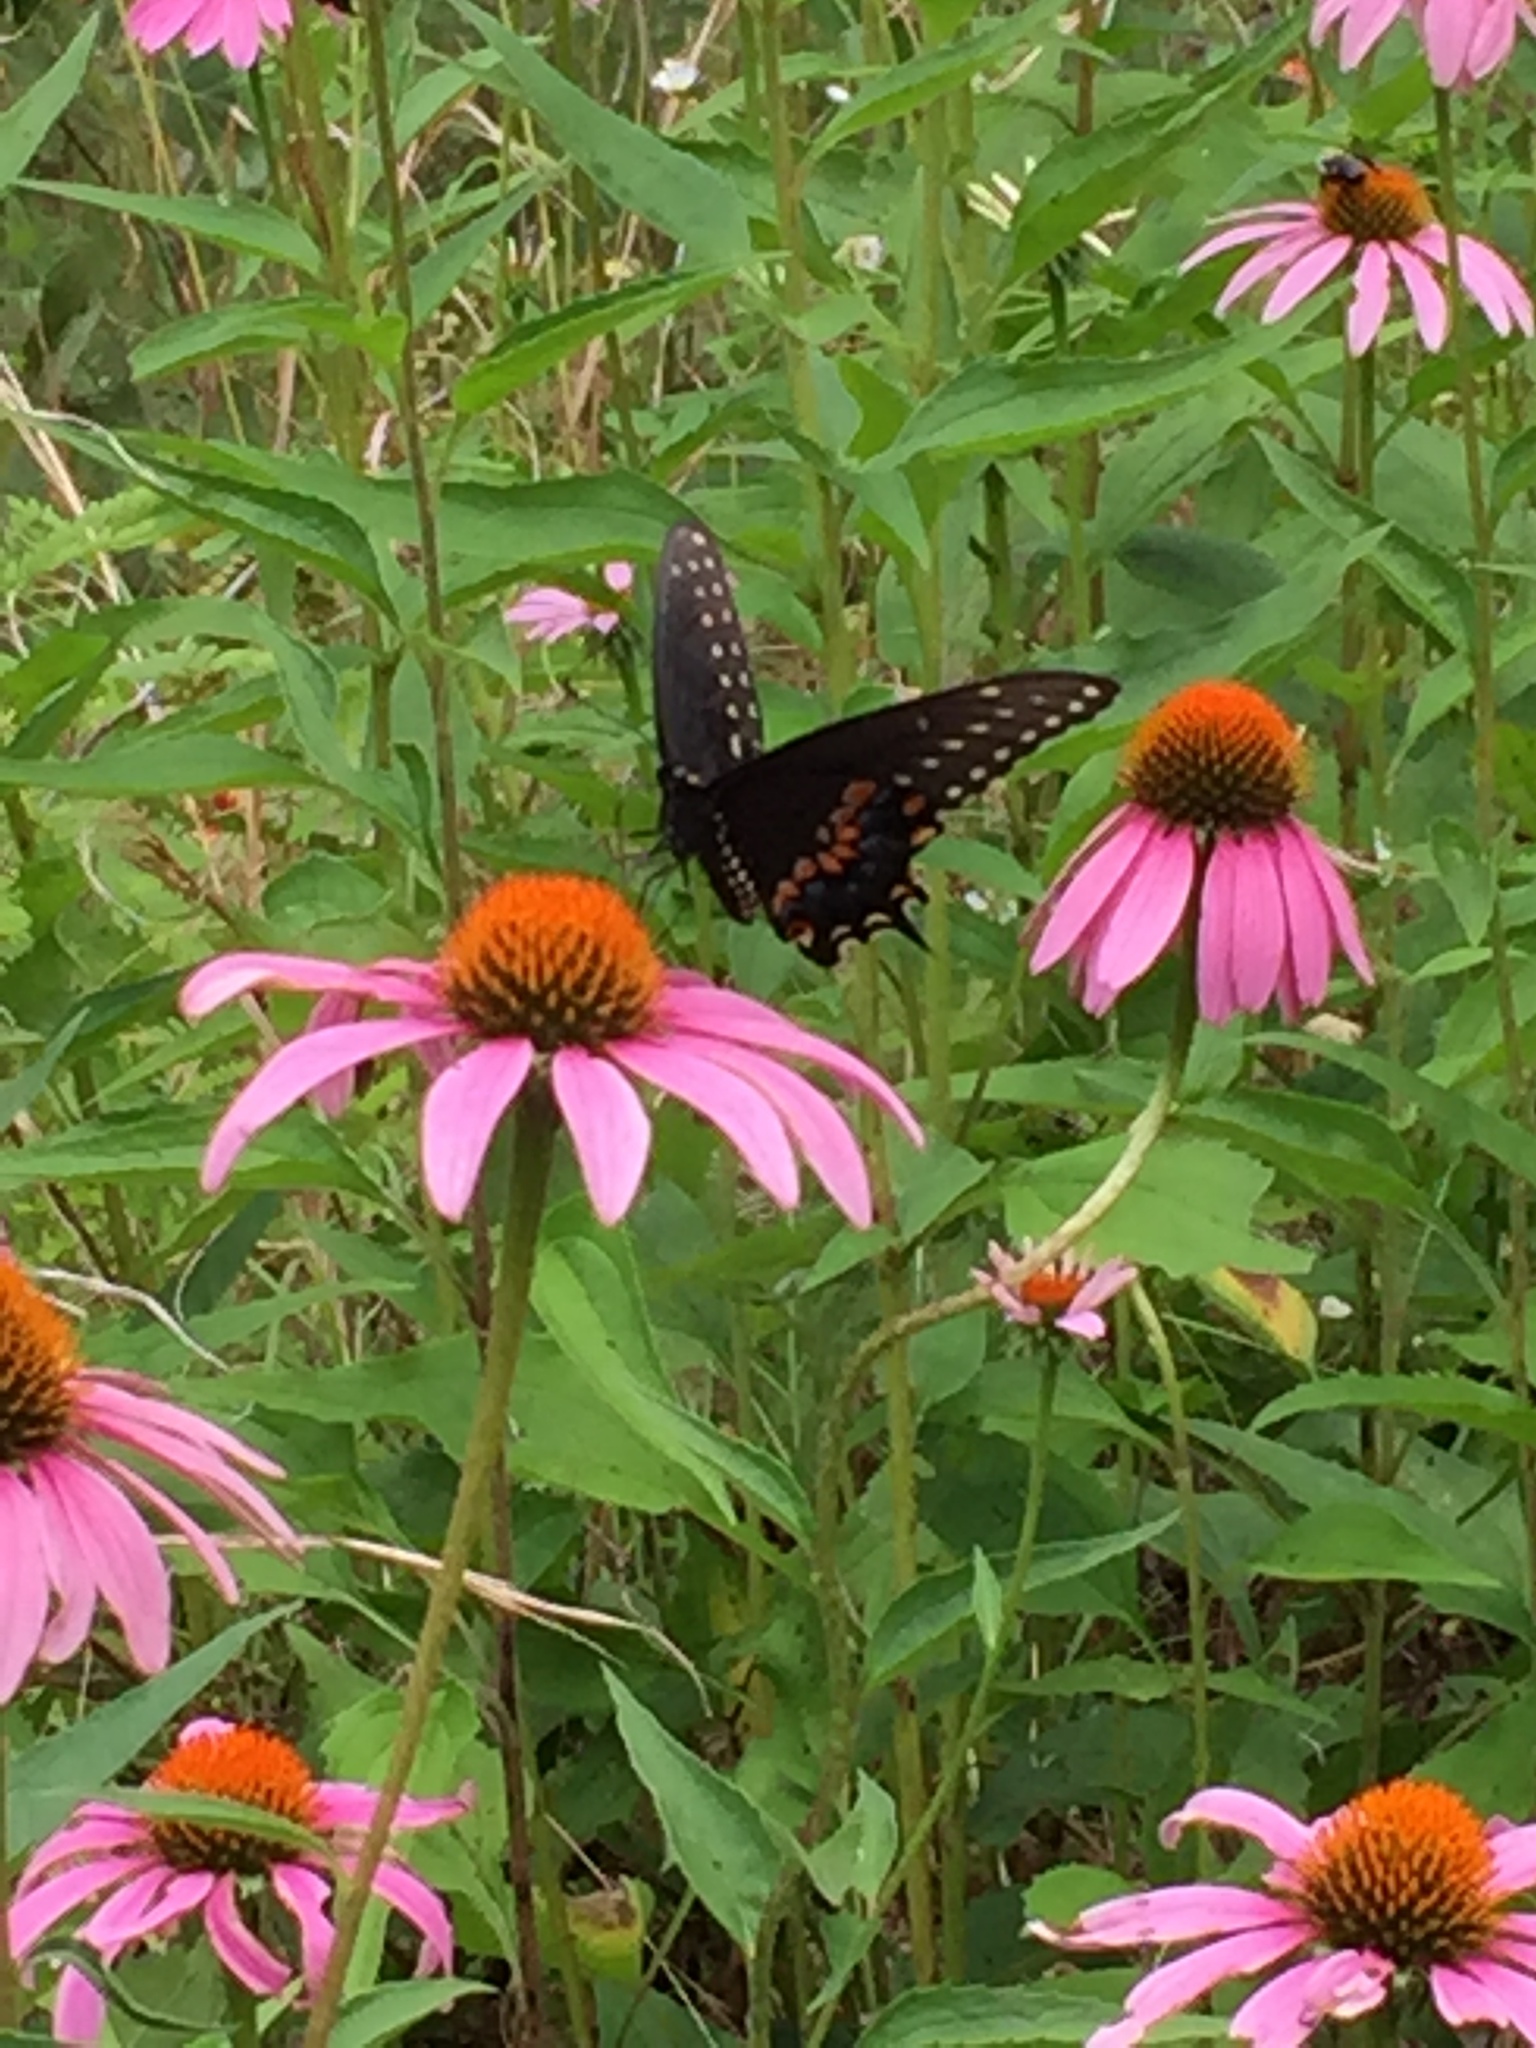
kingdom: Animalia
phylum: Arthropoda
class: Insecta
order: Lepidoptera
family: Papilionidae
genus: Papilio
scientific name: Papilio polyxenes
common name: Black swallowtail
